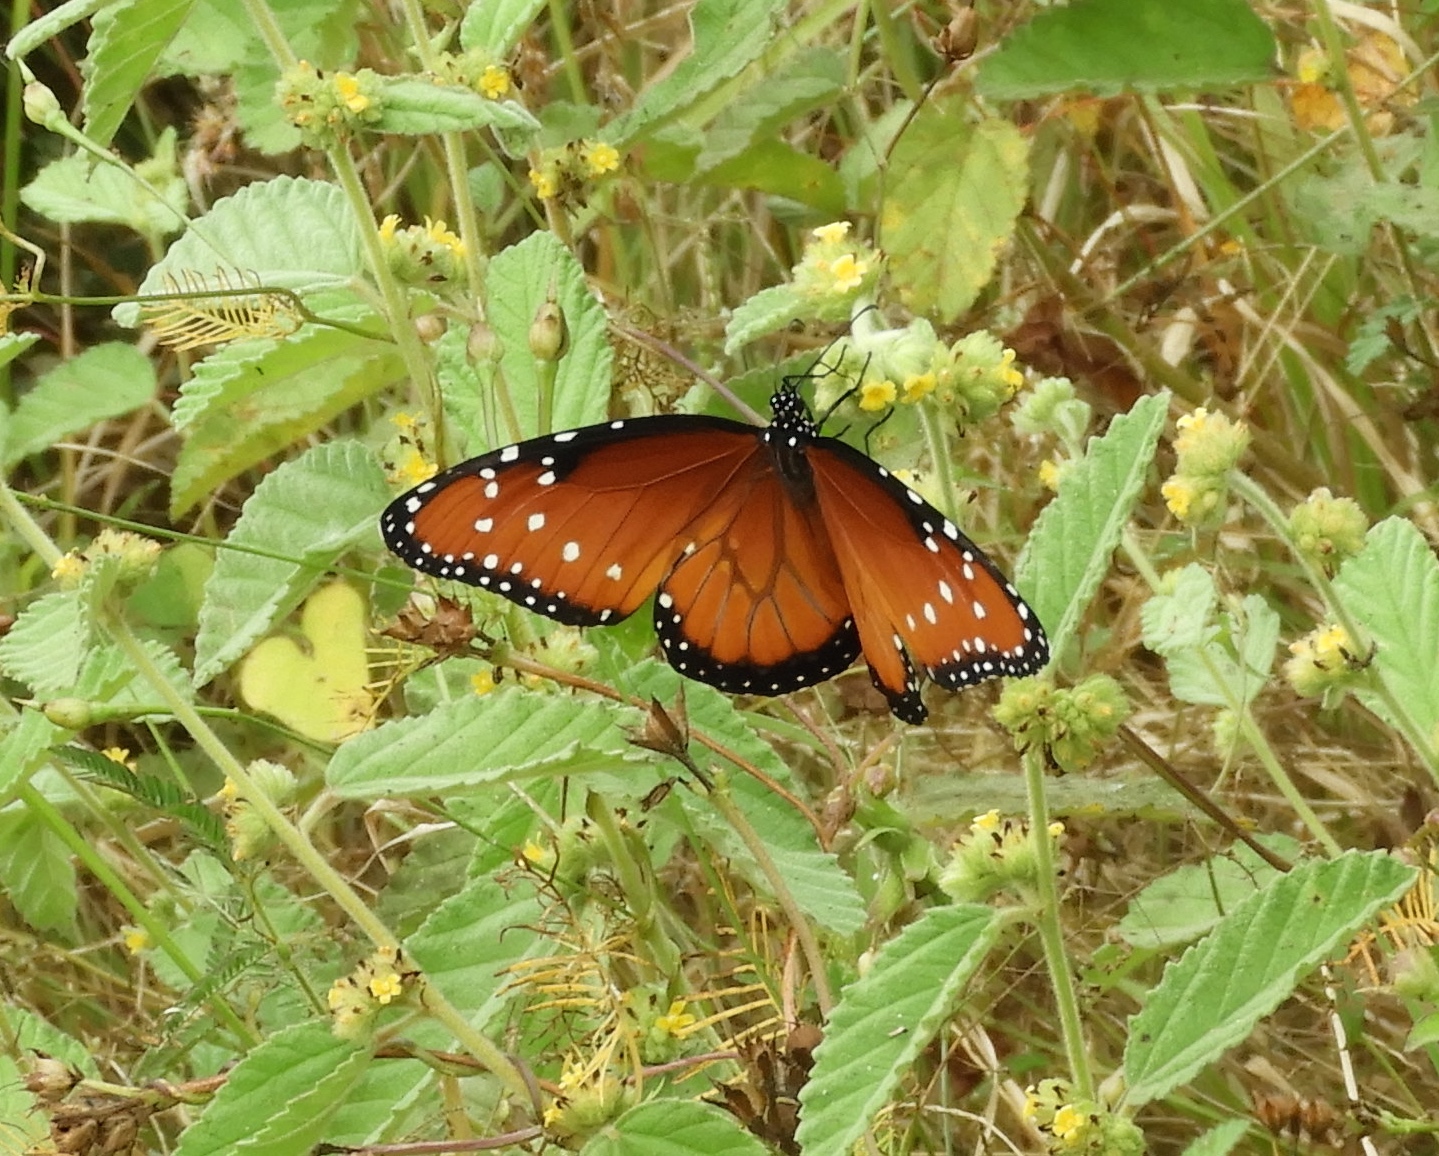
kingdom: Animalia
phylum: Arthropoda
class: Insecta
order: Lepidoptera
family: Nymphalidae
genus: Danaus
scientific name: Danaus gilippus
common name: Queen
